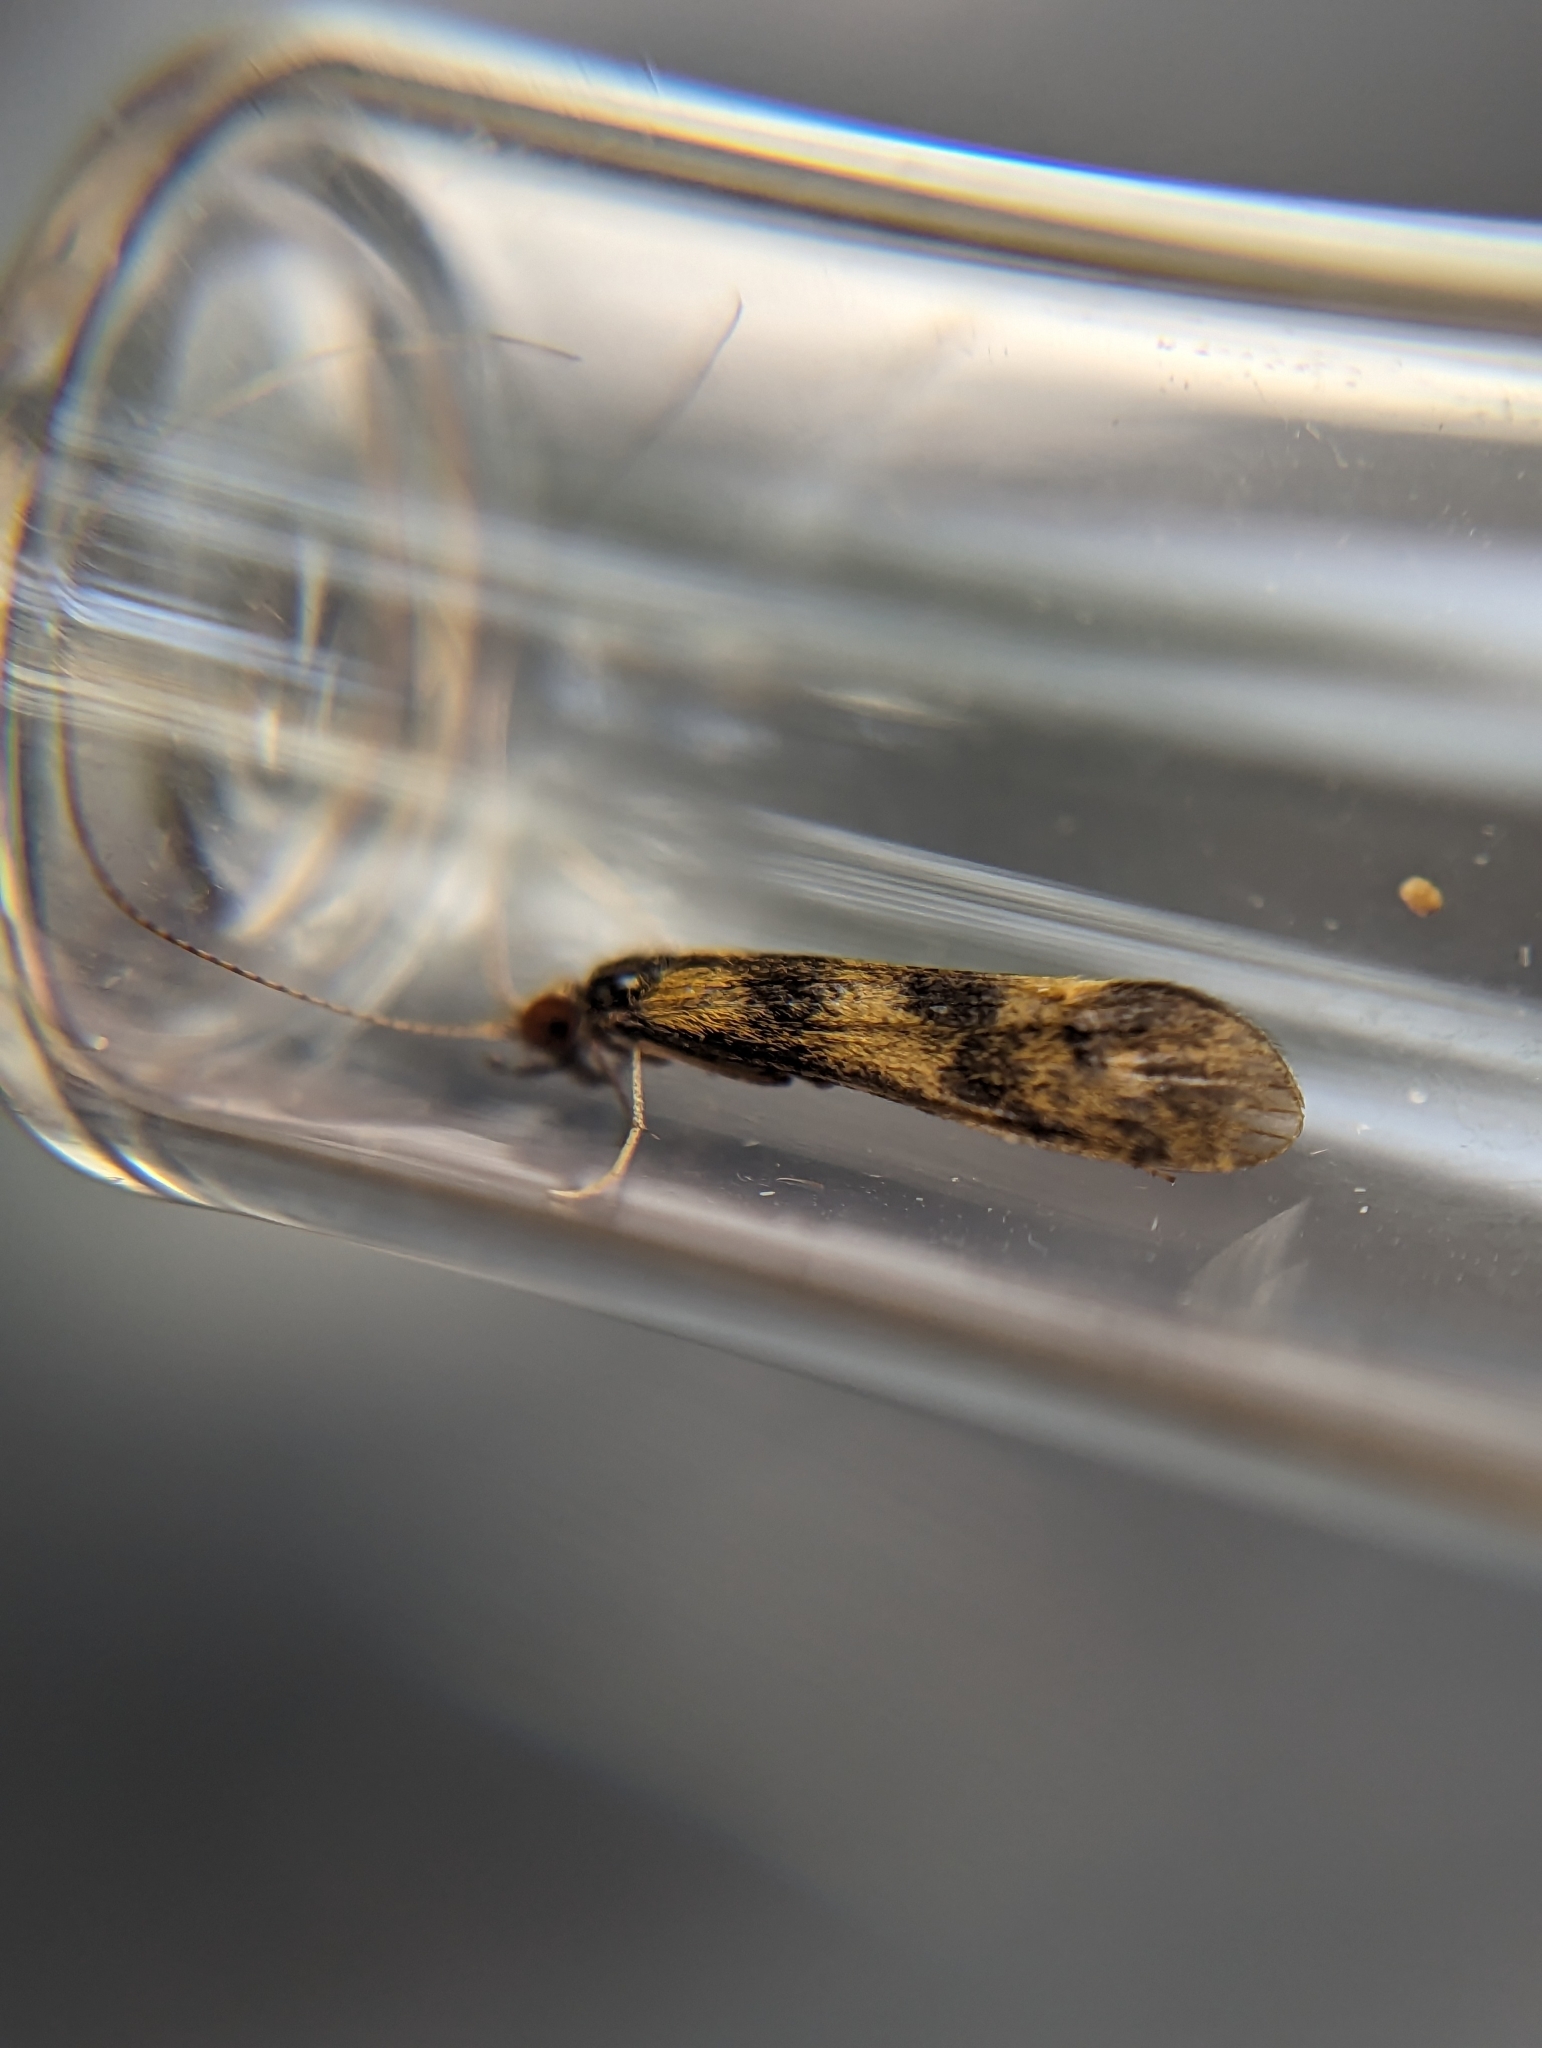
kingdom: Animalia
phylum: Arthropoda
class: Insecta
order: Trichoptera
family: Leptoceridae
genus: Mystacides
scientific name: Mystacides longicornis
